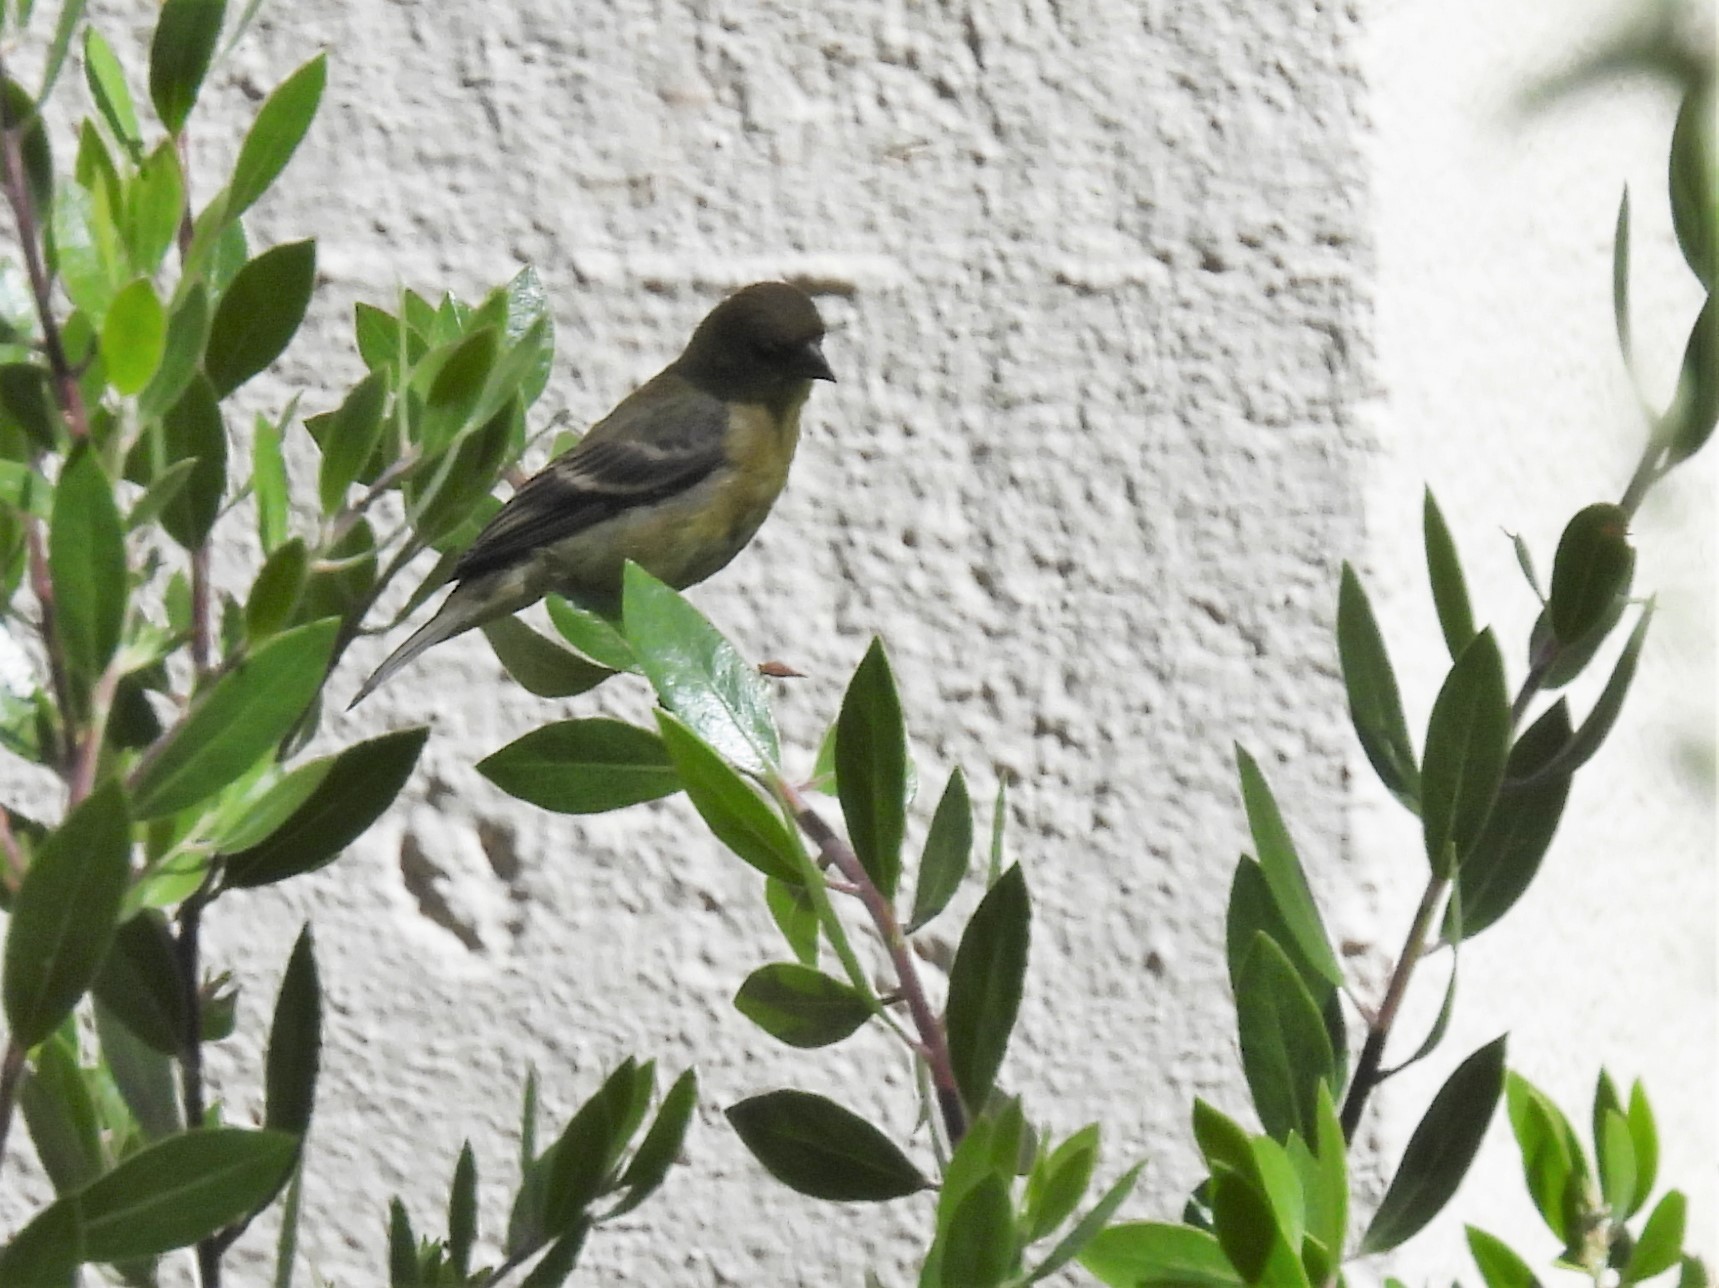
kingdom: Animalia
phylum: Chordata
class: Aves
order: Passeriformes
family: Fringillidae
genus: Spinus
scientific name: Spinus psaltria
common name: Lesser goldfinch
